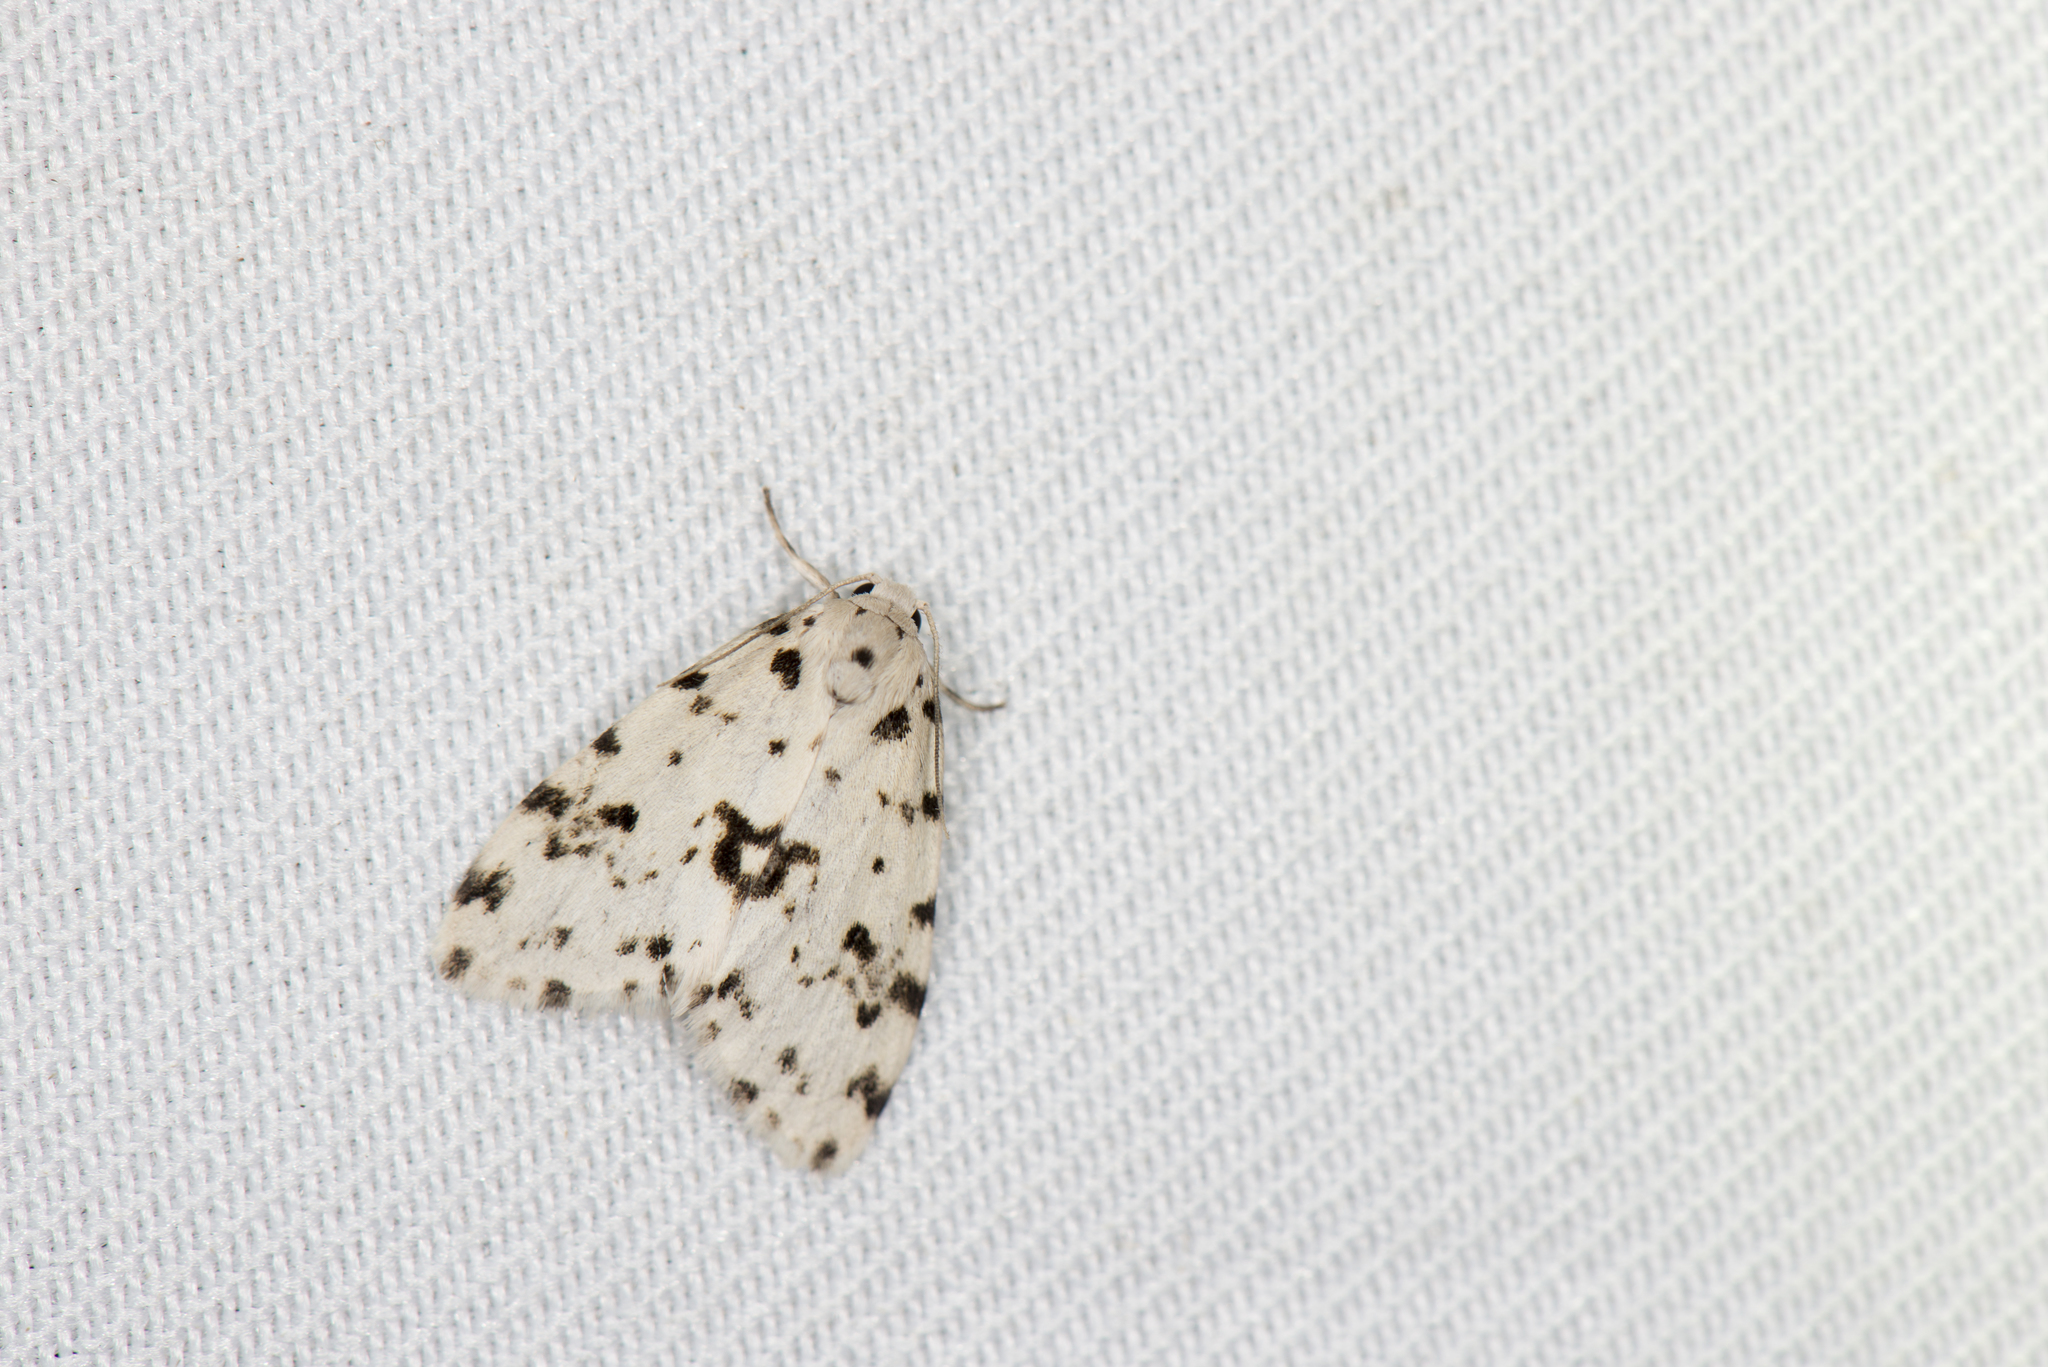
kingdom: Animalia
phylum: Arthropoda
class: Insecta
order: Lepidoptera
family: Erebidae
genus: Siccia
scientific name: Siccia Aemene taiwana
